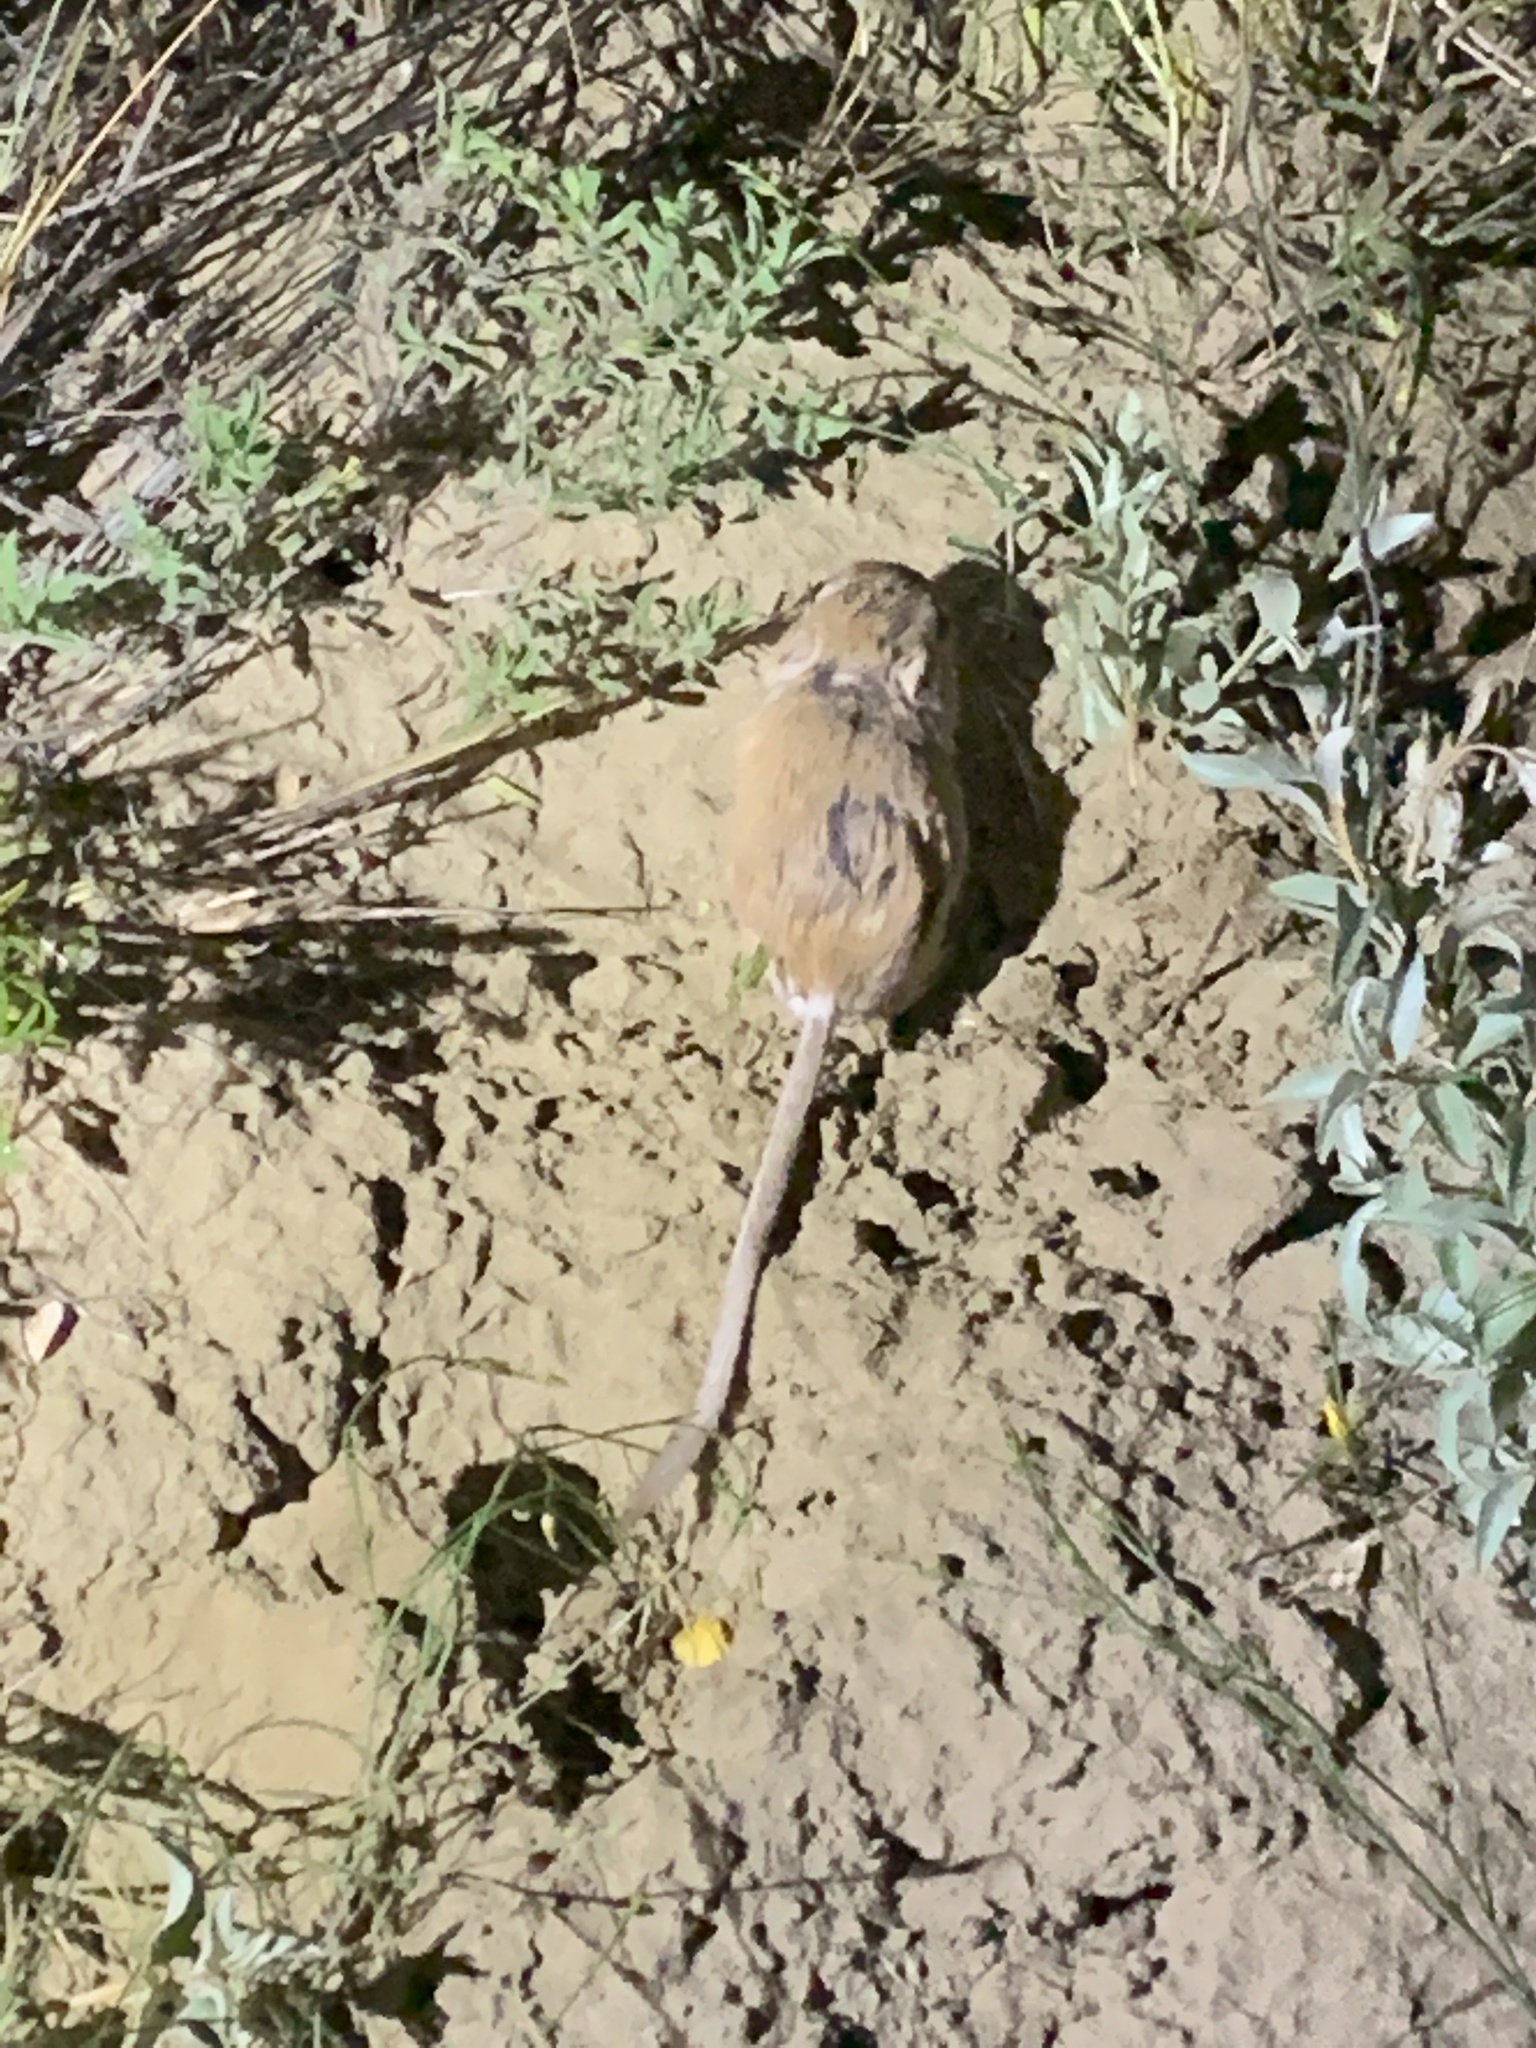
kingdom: Animalia
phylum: Chordata
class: Mammalia
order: Rodentia
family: Heteromyidae
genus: Dipodomys
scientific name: Dipodomys ordii
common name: Ord's kangaroo rat
